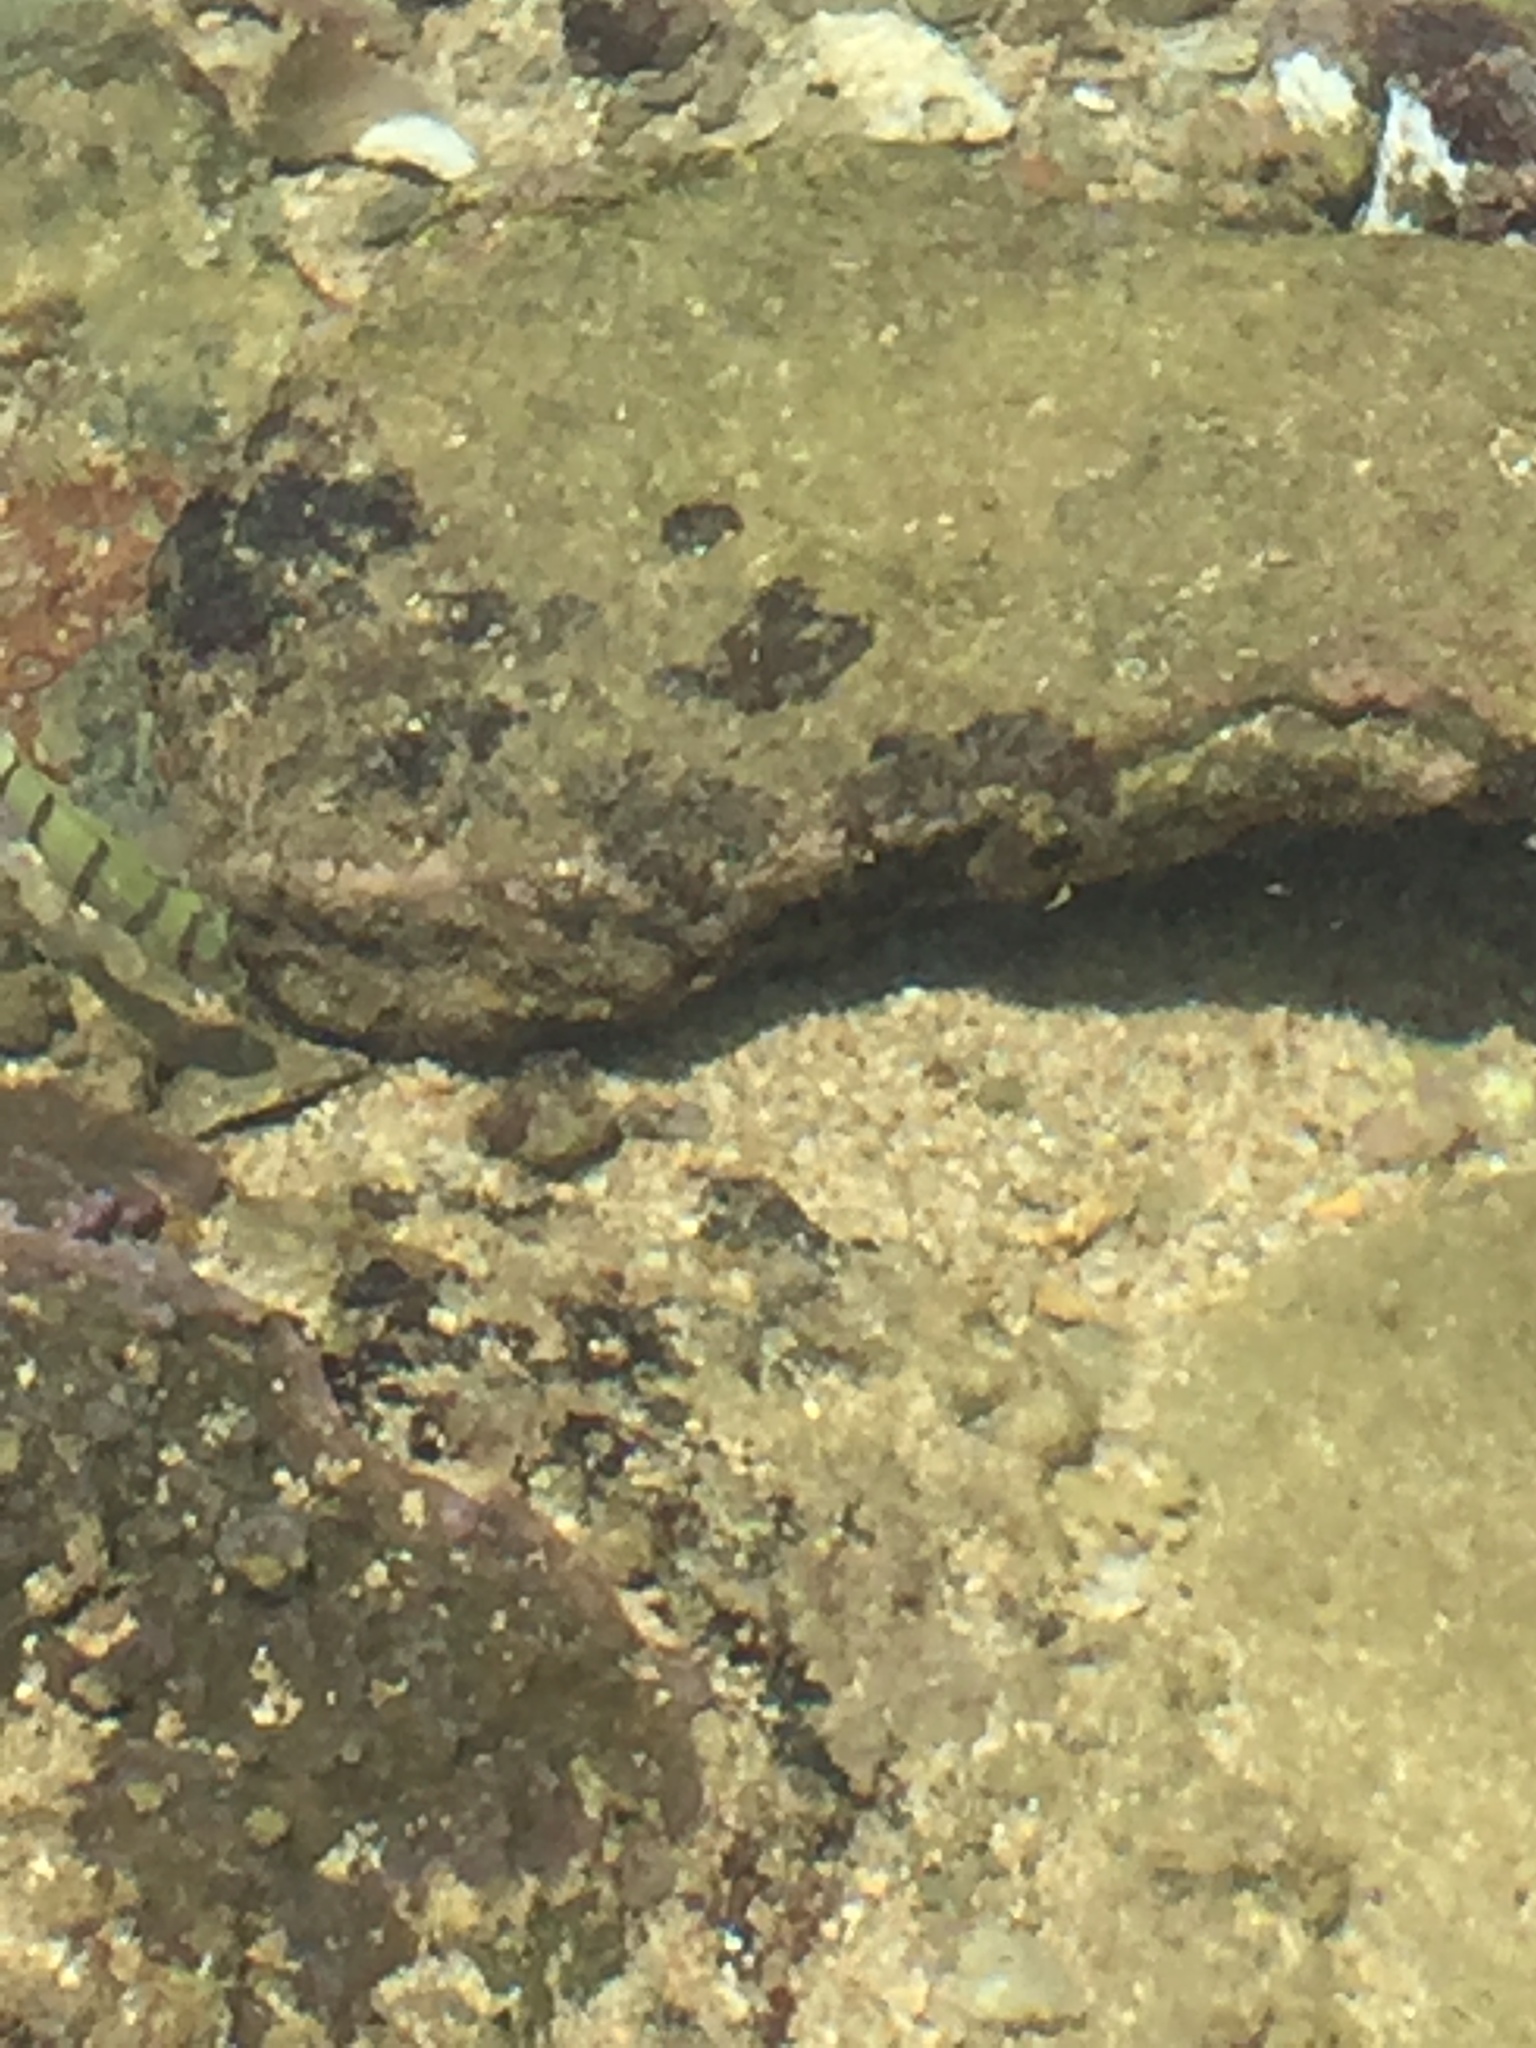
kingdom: Animalia
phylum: Chordata
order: Perciformes
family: Acanthuridae
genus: Acanthurus
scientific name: Acanthurus triostegus
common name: Convict surgeonfish
